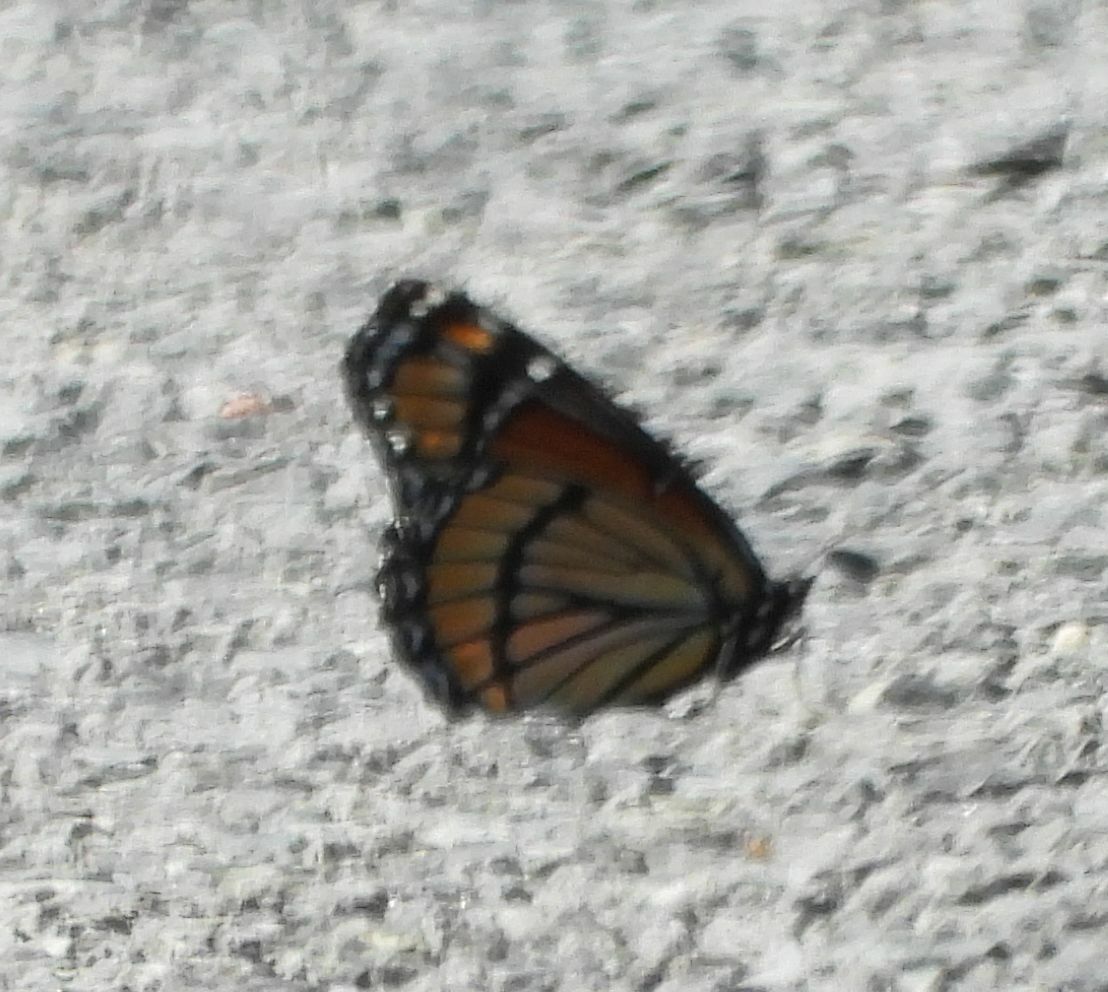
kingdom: Animalia
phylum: Arthropoda
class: Insecta
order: Lepidoptera
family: Nymphalidae
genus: Limenitis
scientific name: Limenitis archippus
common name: Viceroy
